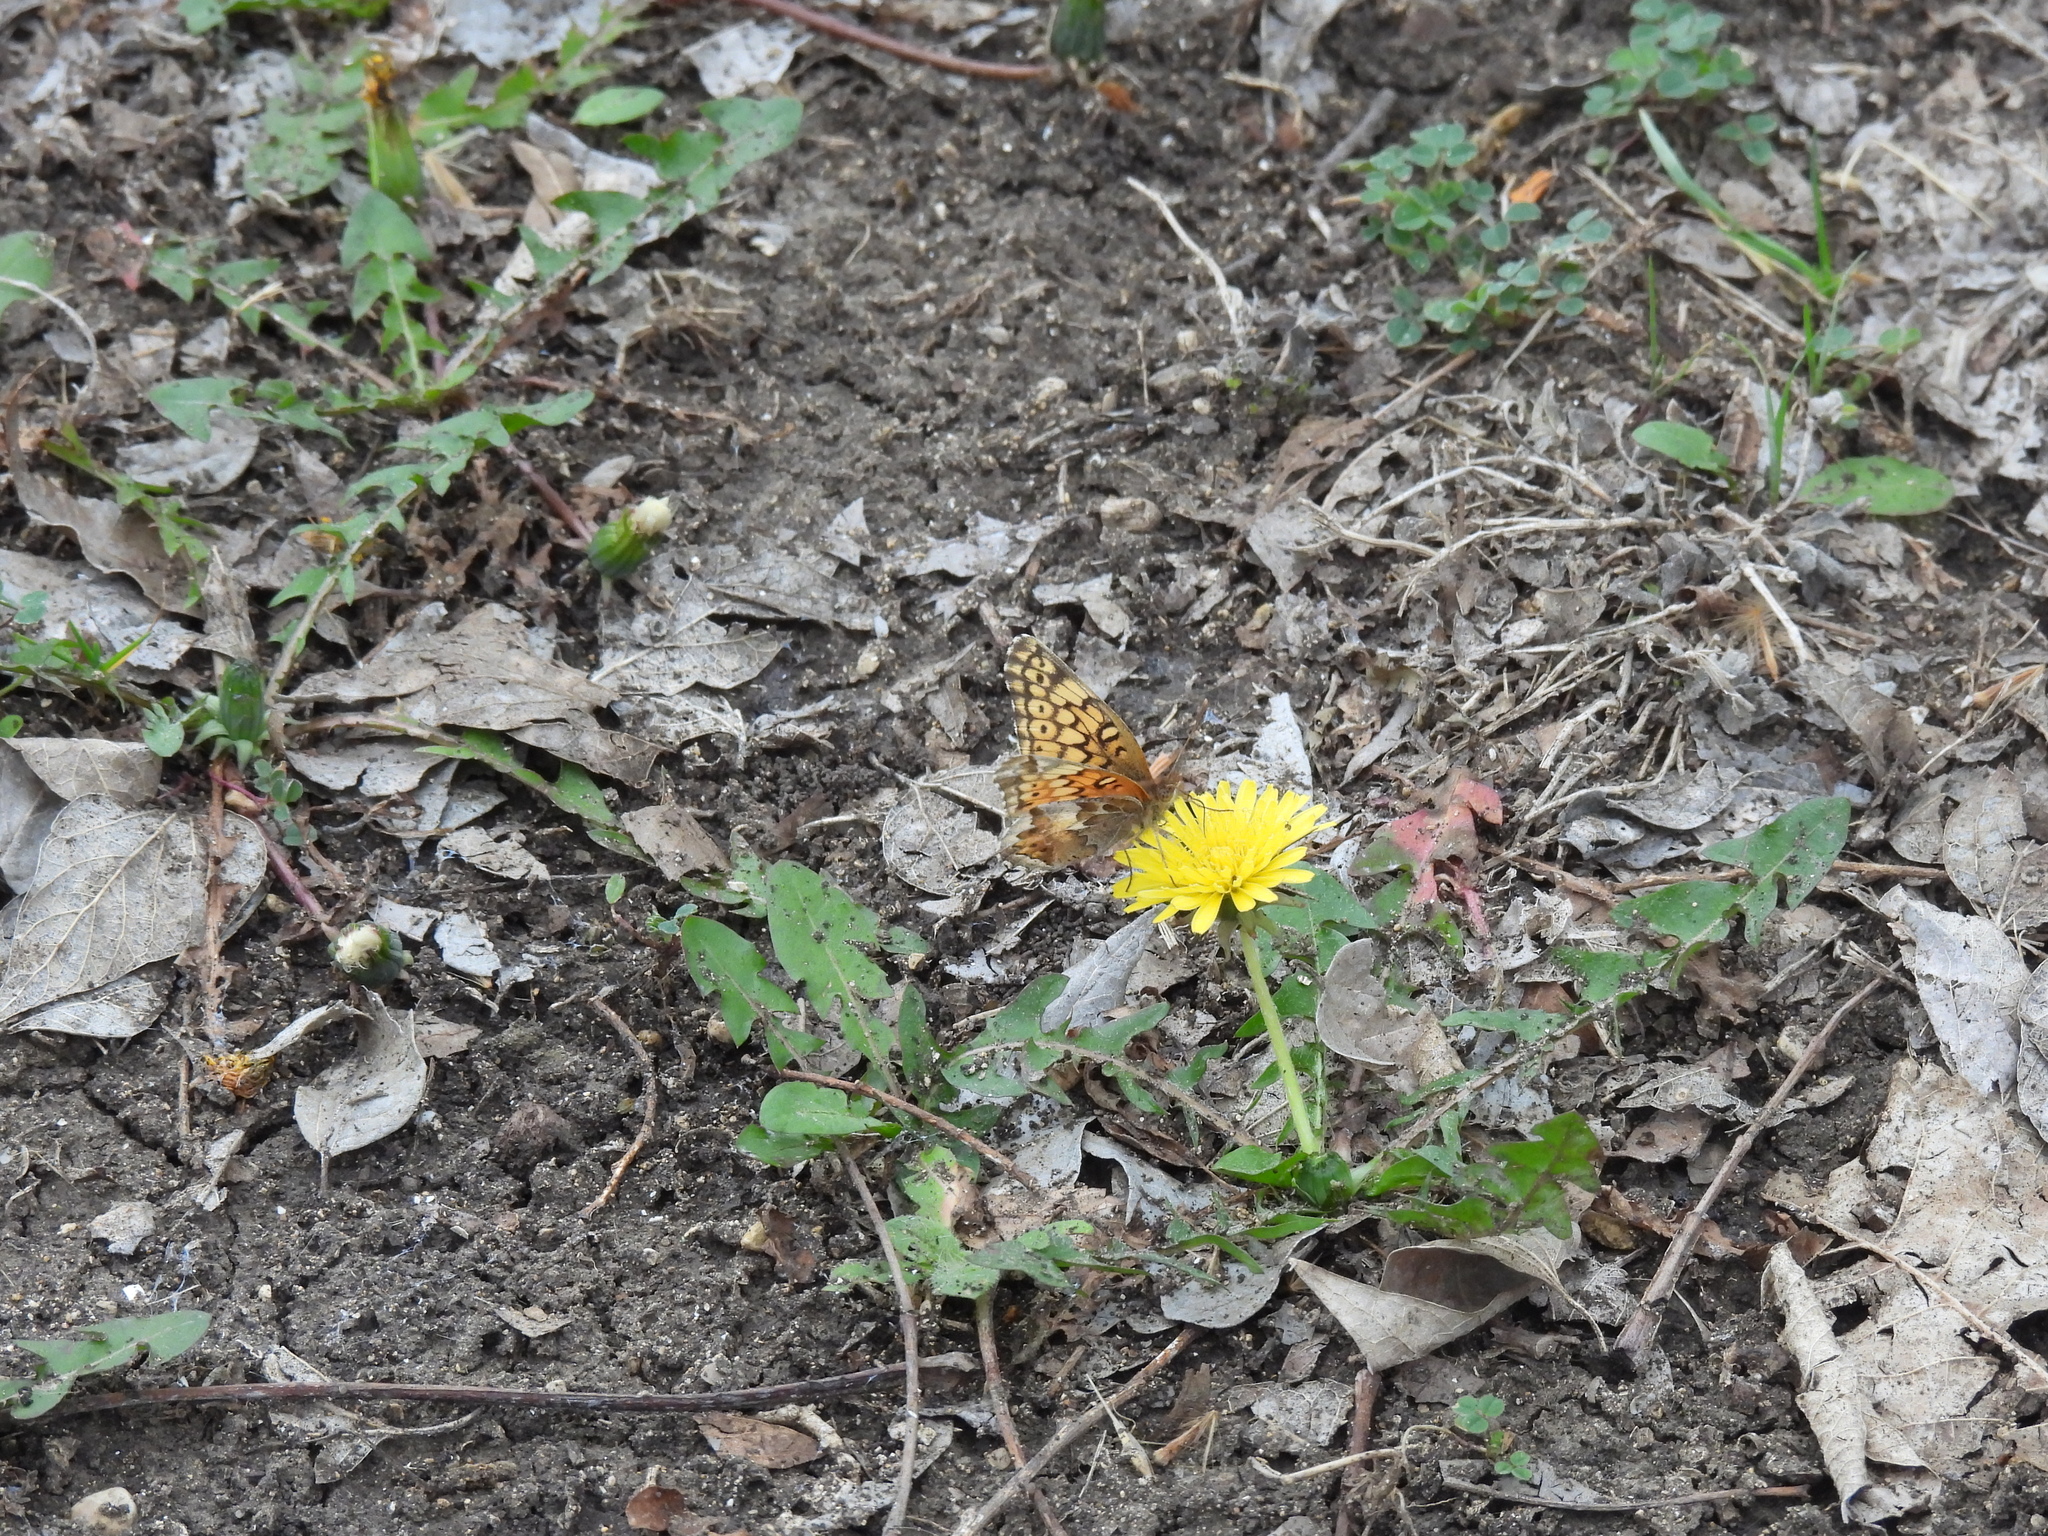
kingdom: Animalia
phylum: Arthropoda
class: Insecta
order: Lepidoptera
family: Nymphalidae
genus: Euptoieta
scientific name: Euptoieta claudia
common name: Variegated fritillary
